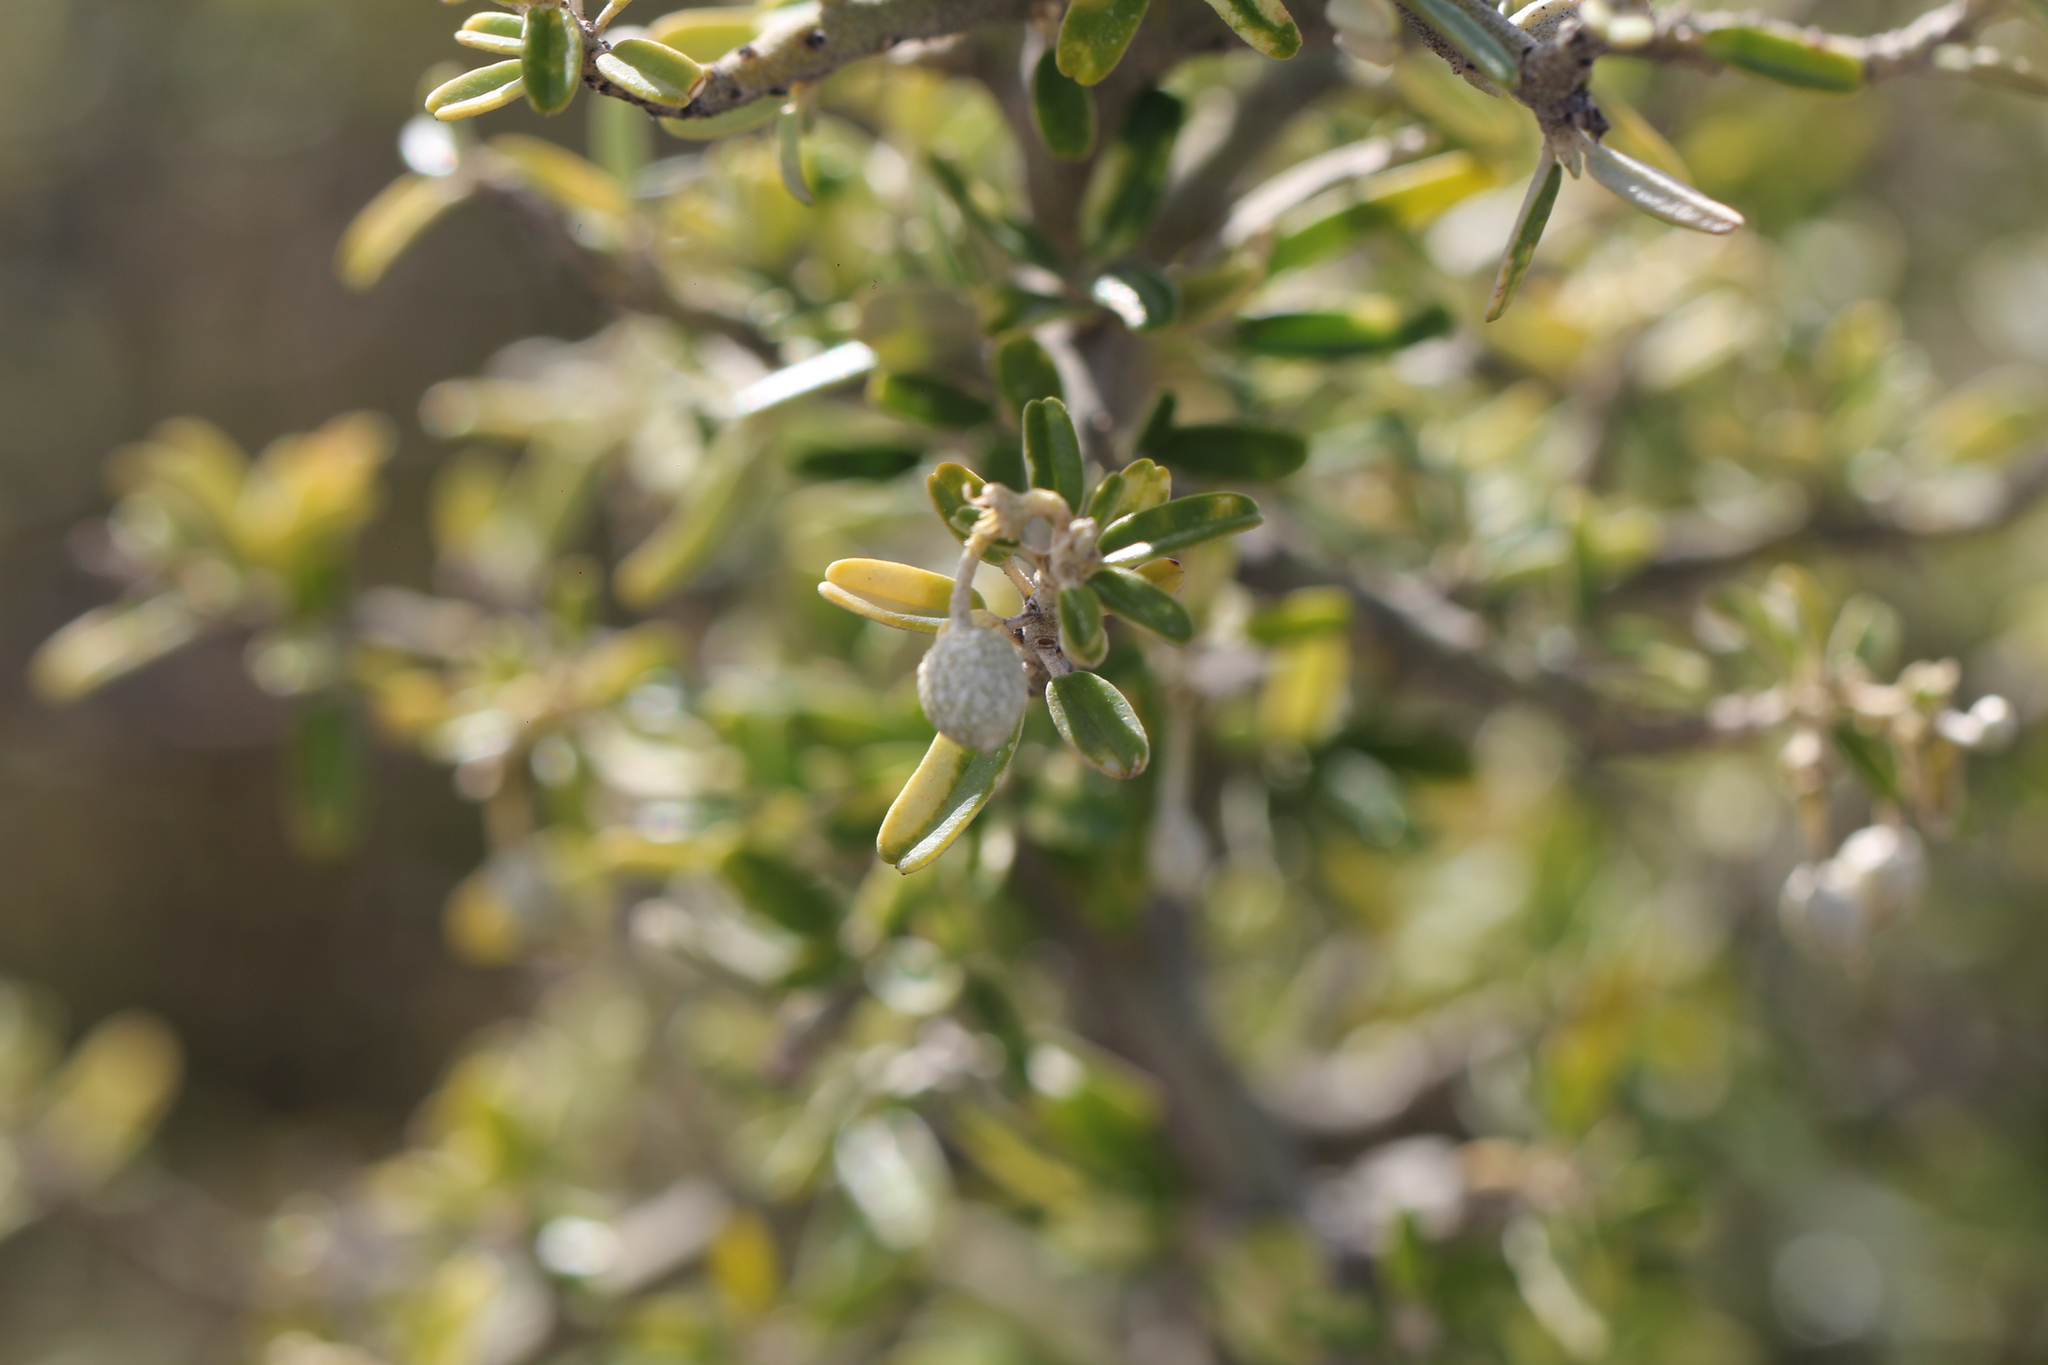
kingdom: Plantae
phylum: Tracheophyta
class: Magnoliopsida
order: Brassicales
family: Capparaceae
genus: Atamisquea
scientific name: Atamisquea emarginata
